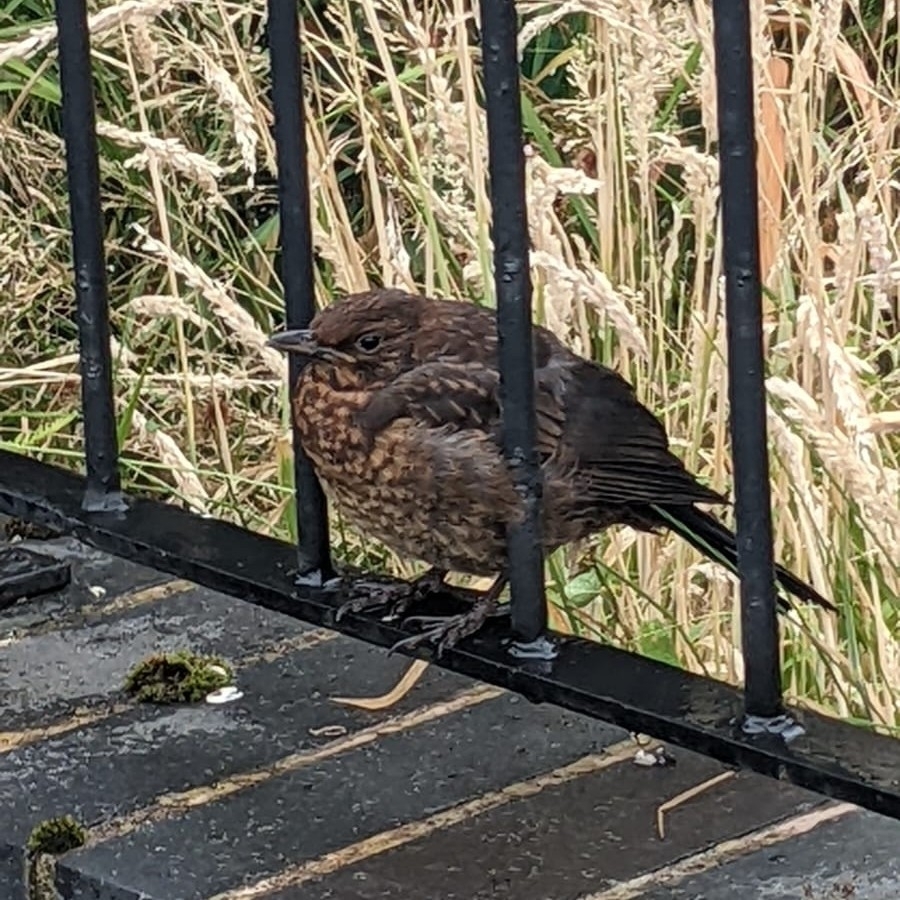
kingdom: Animalia
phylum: Chordata
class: Aves
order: Passeriformes
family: Turdidae
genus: Turdus
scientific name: Turdus merula
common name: Common blackbird
